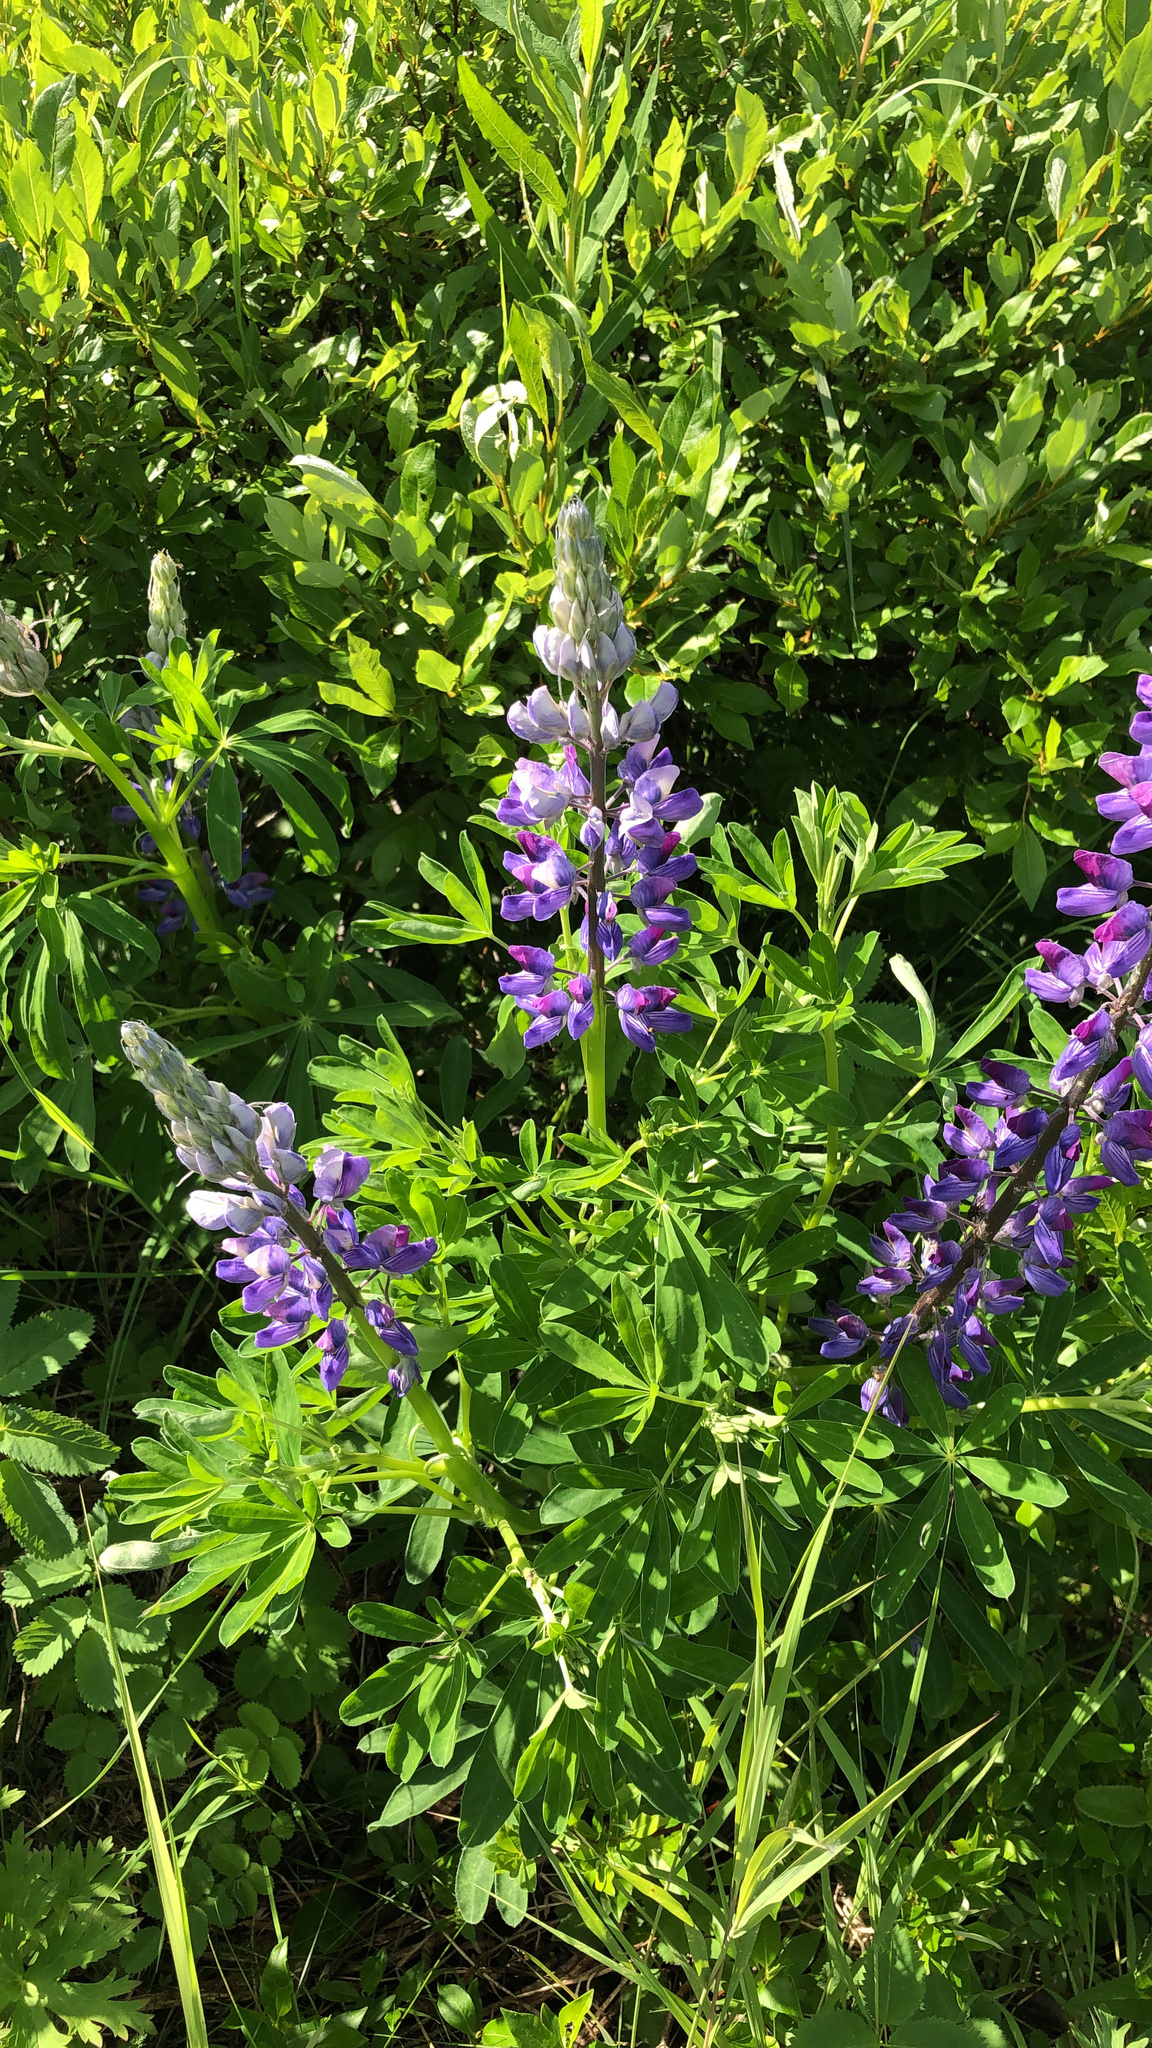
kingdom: Plantae
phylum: Tracheophyta
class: Magnoliopsida
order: Fabales
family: Fabaceae
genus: Lupinus
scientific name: Lupinus nootkatensis
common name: Nootka lupine
